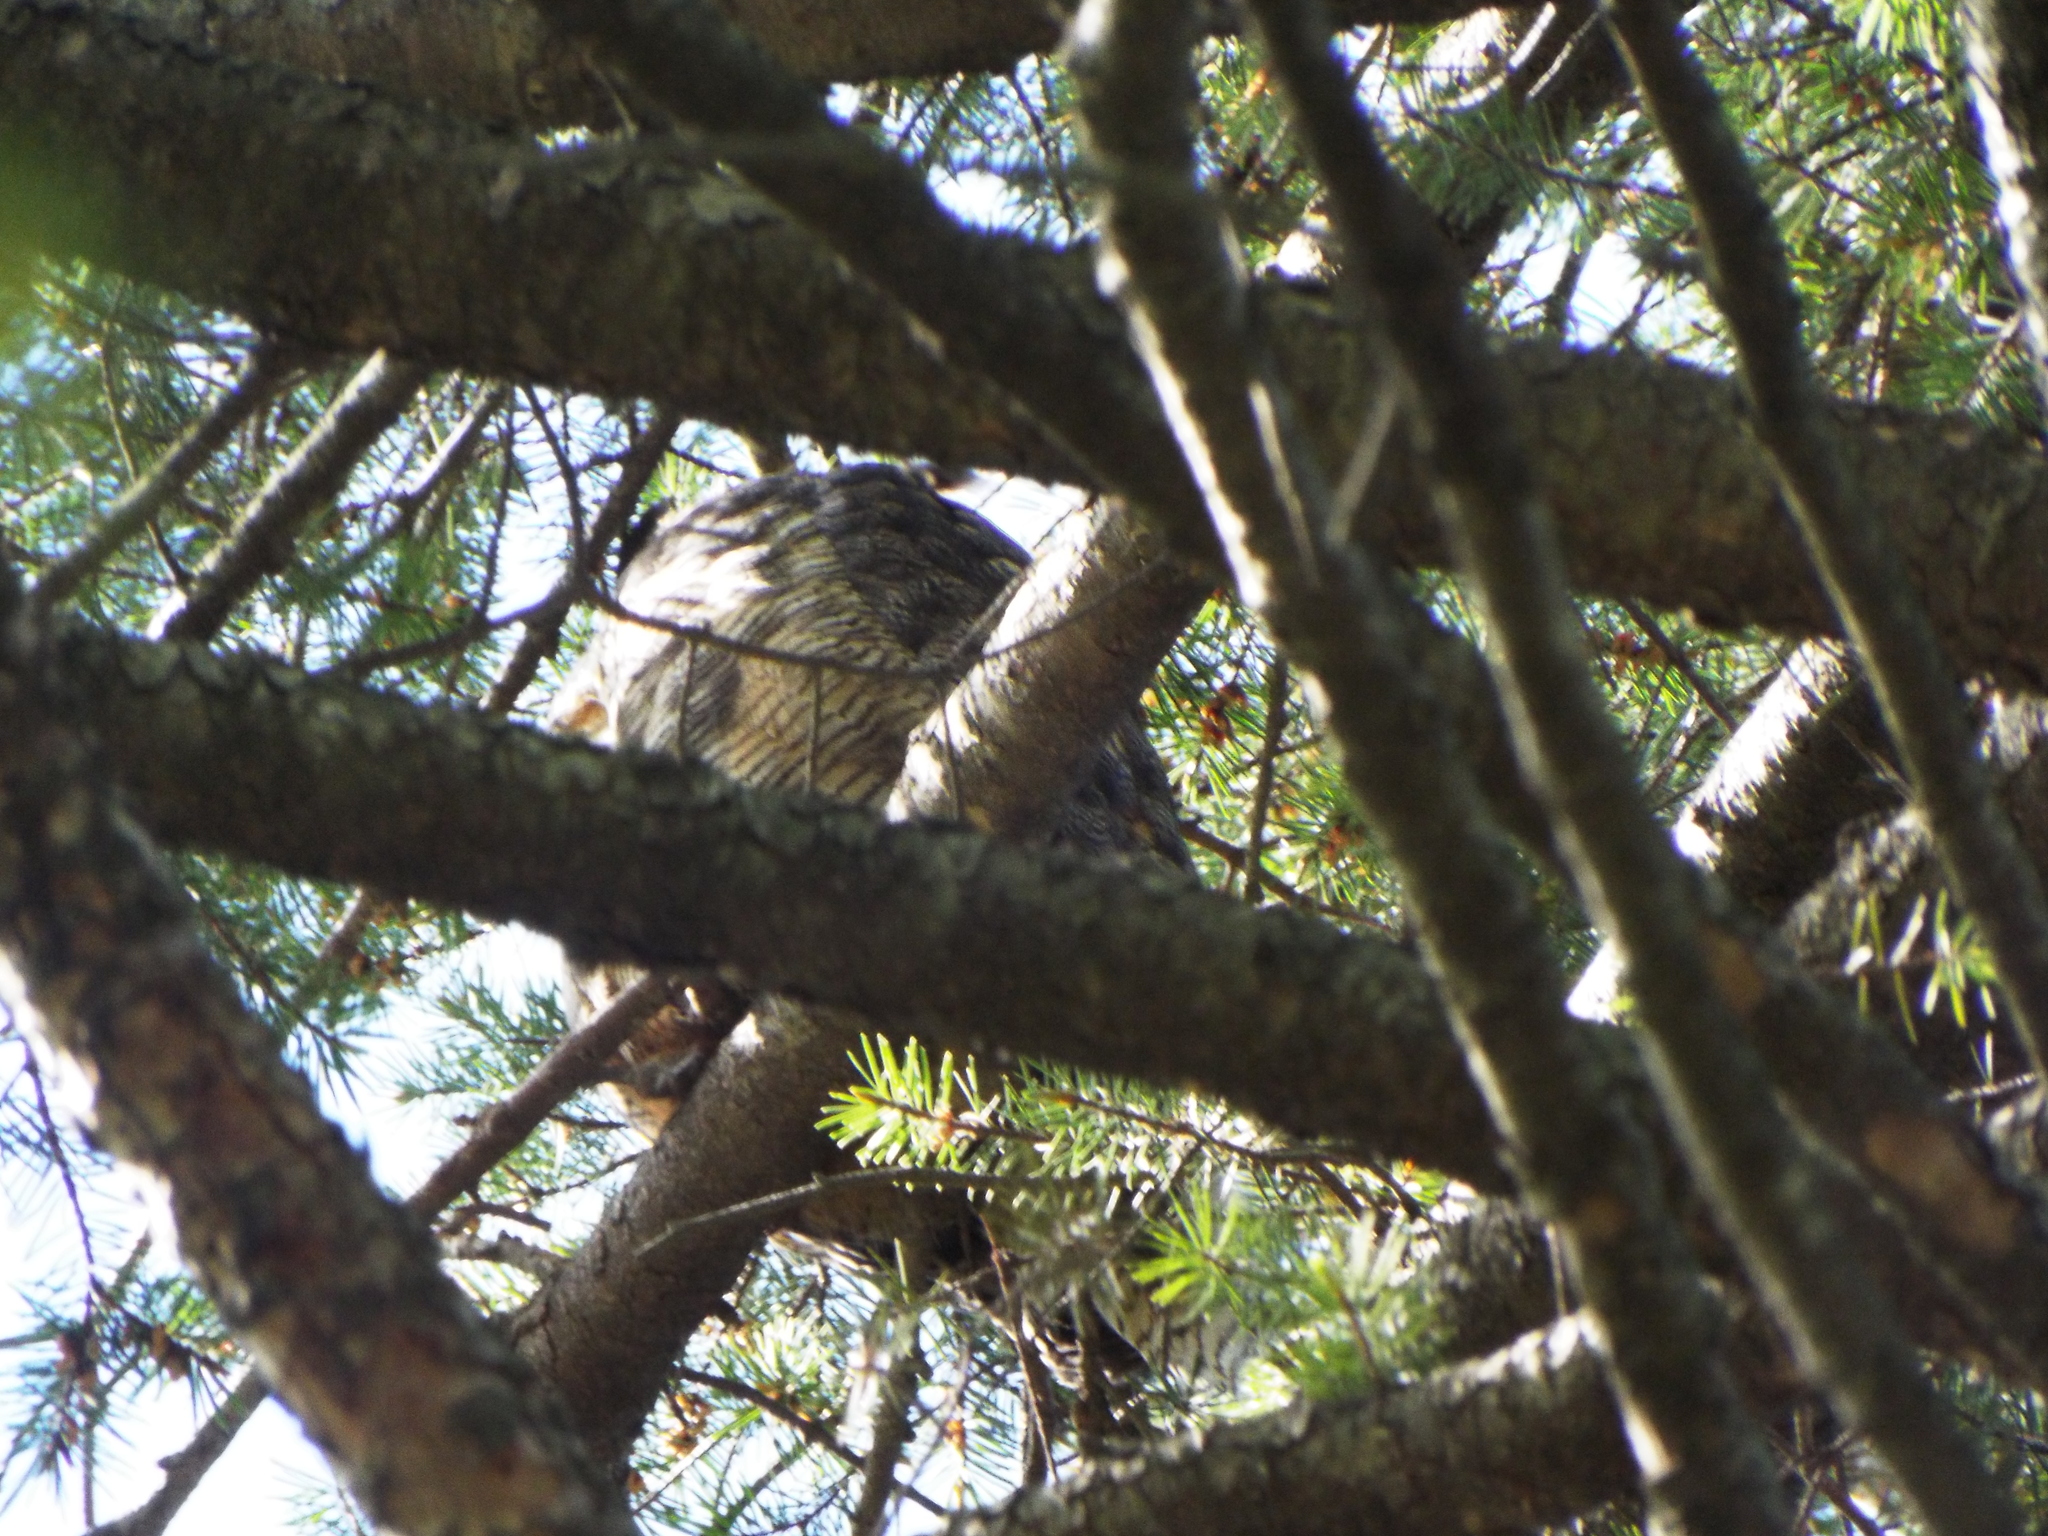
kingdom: Animalia
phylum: Chordata
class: Aves
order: Strigiformes
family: Strigidae
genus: Bubo
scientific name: Bubo virginianus
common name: Great horned owl
